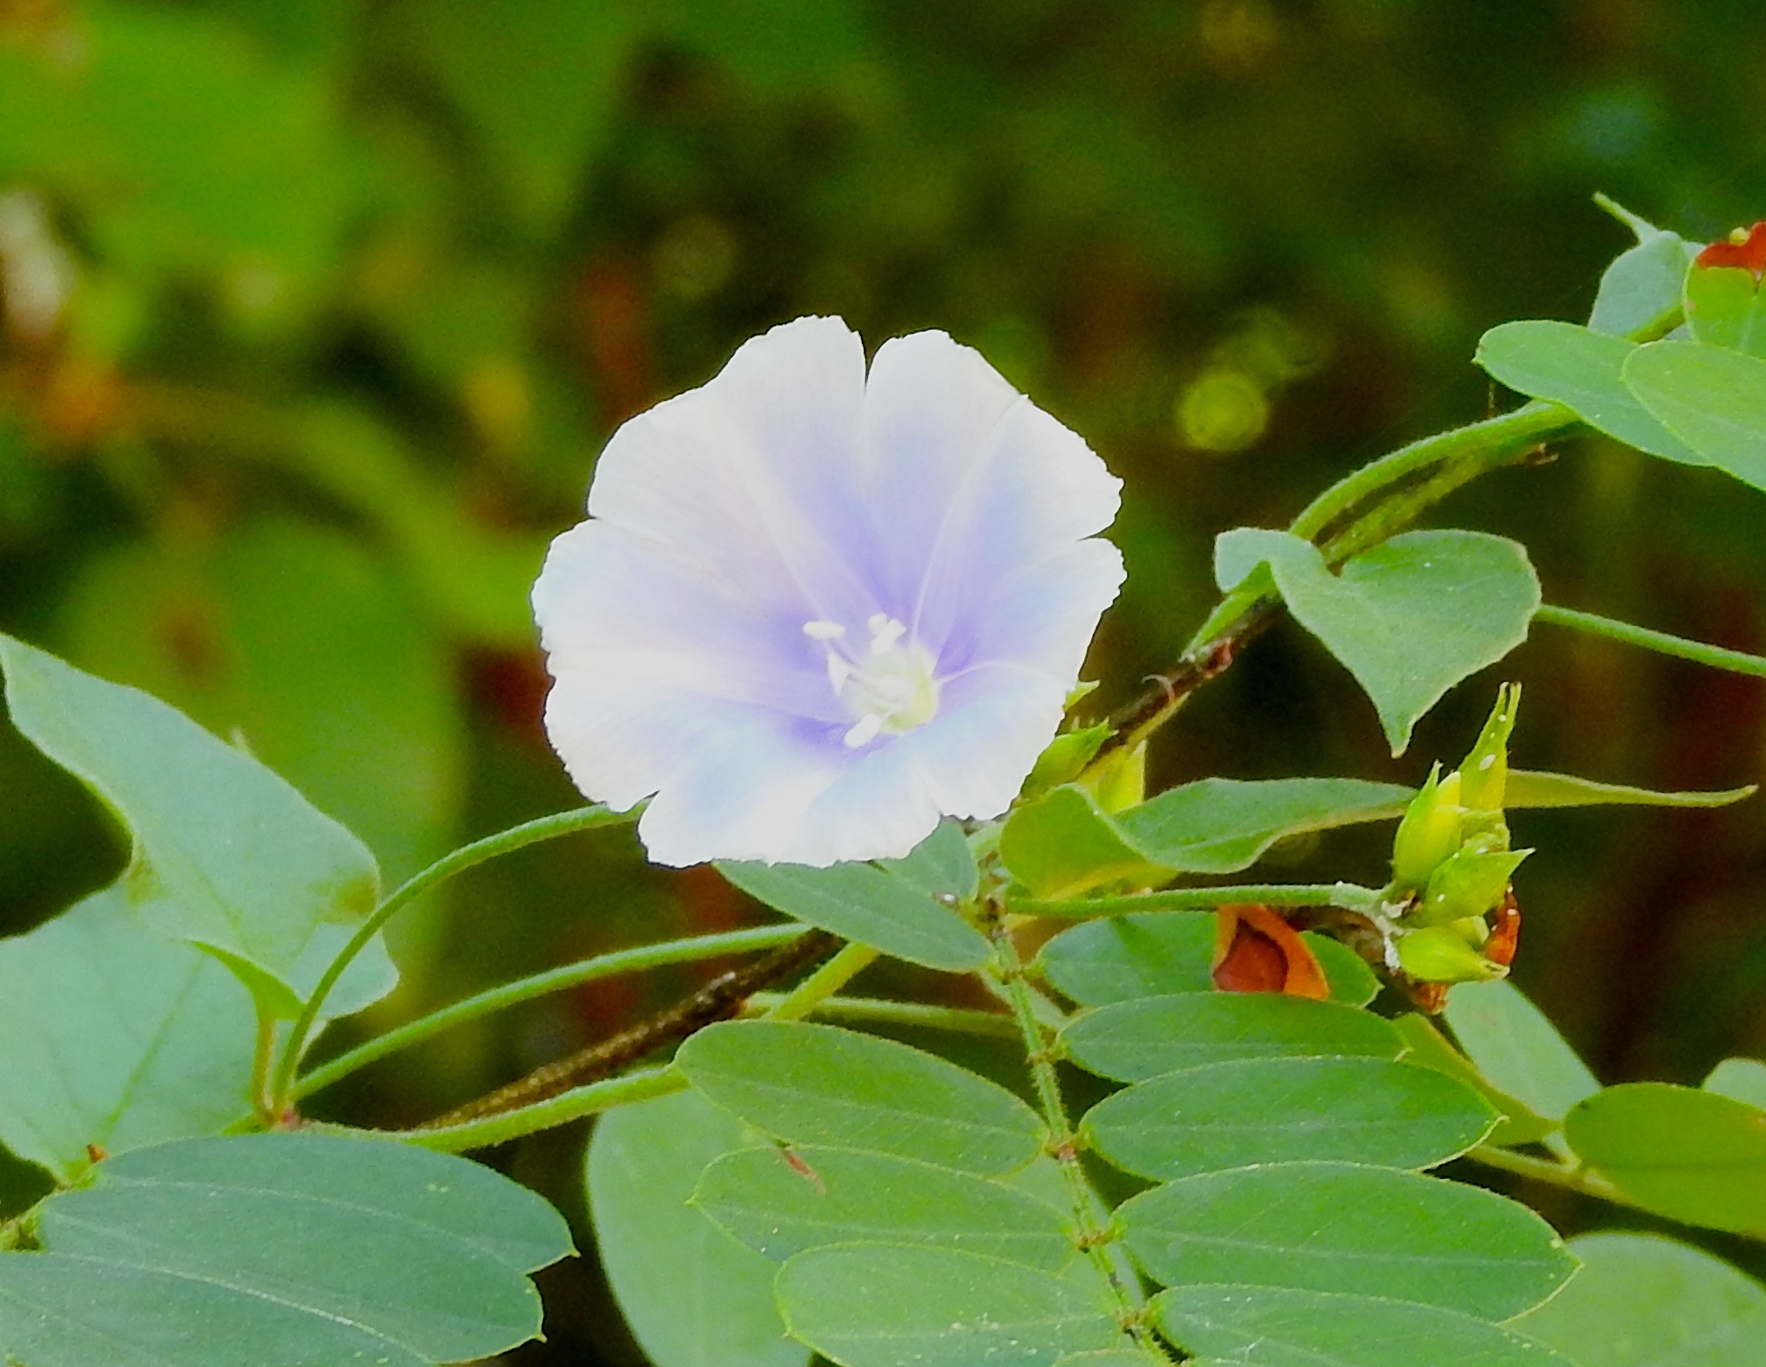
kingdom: Plantae
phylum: Tracheophyta
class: Magnoliopsida
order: Solanales
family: Convolvulaceae
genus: Jacquemontia
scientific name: Jacquemontia pentanthos
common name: Skyblue clustervine
